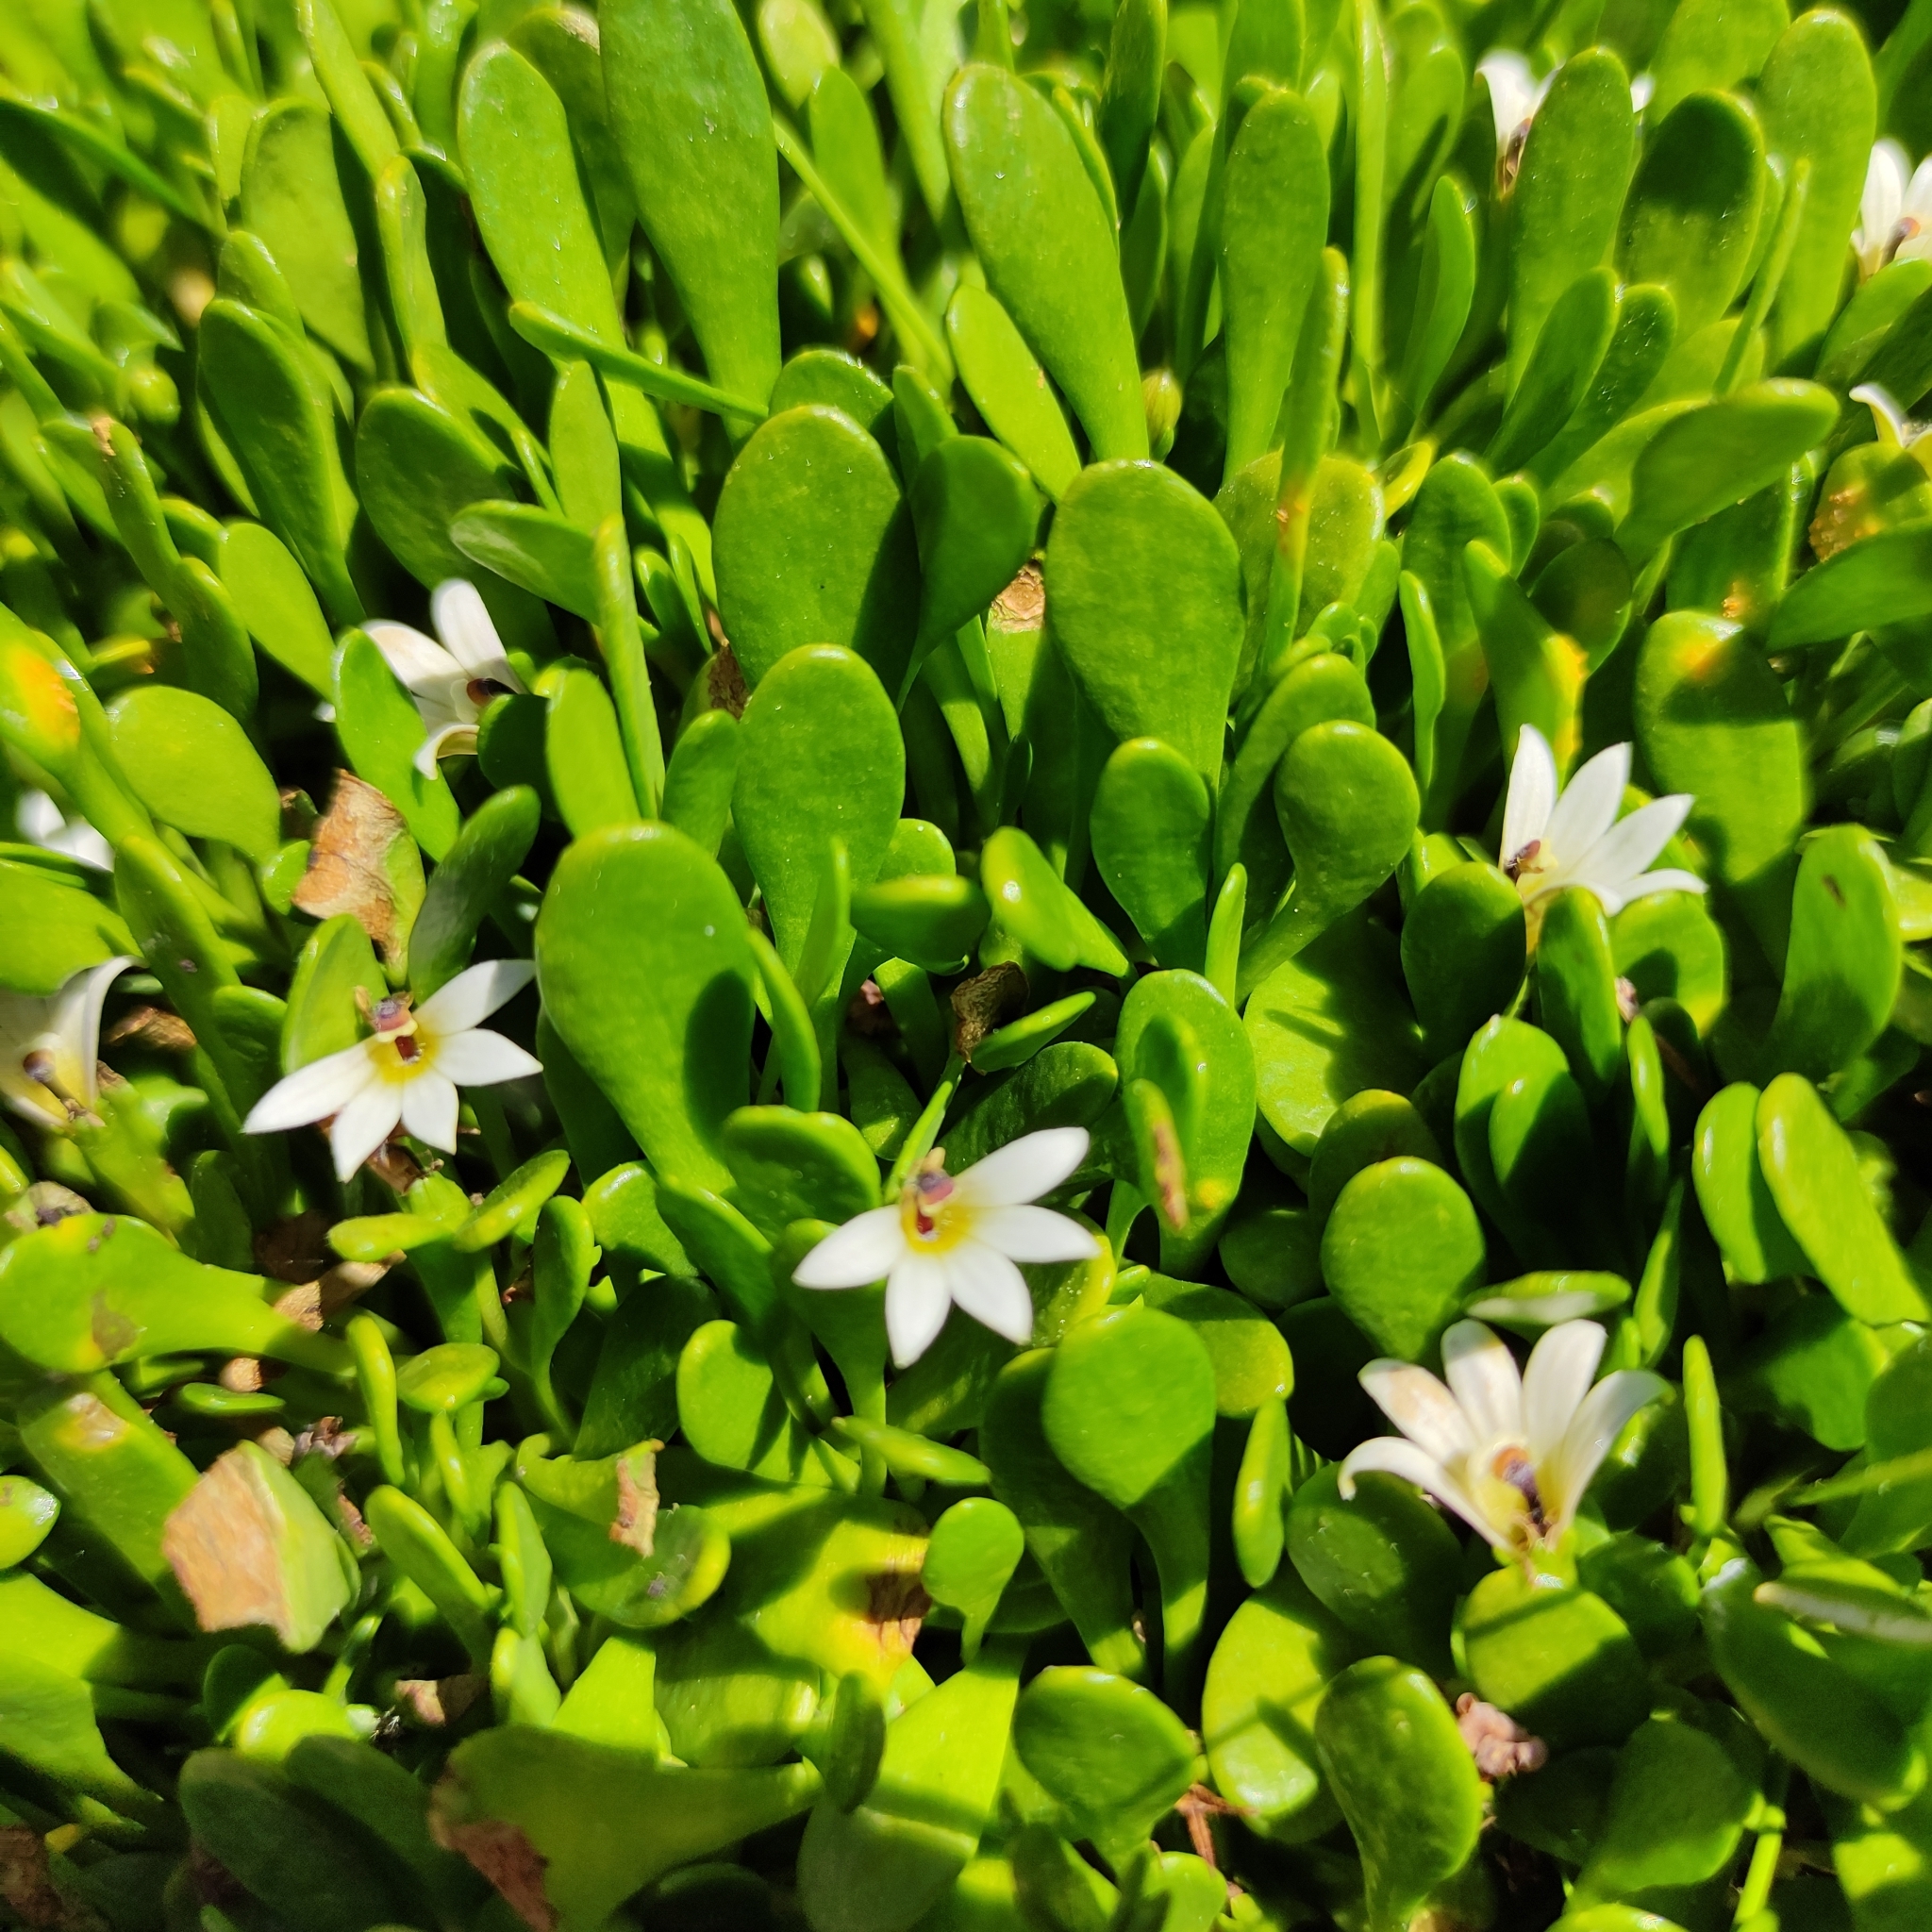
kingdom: Plantae
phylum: Tracheophyta
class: Magnoliopsida
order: Asterales
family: Goodeniaceae
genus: Goodenia
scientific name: Goodenia radicans
